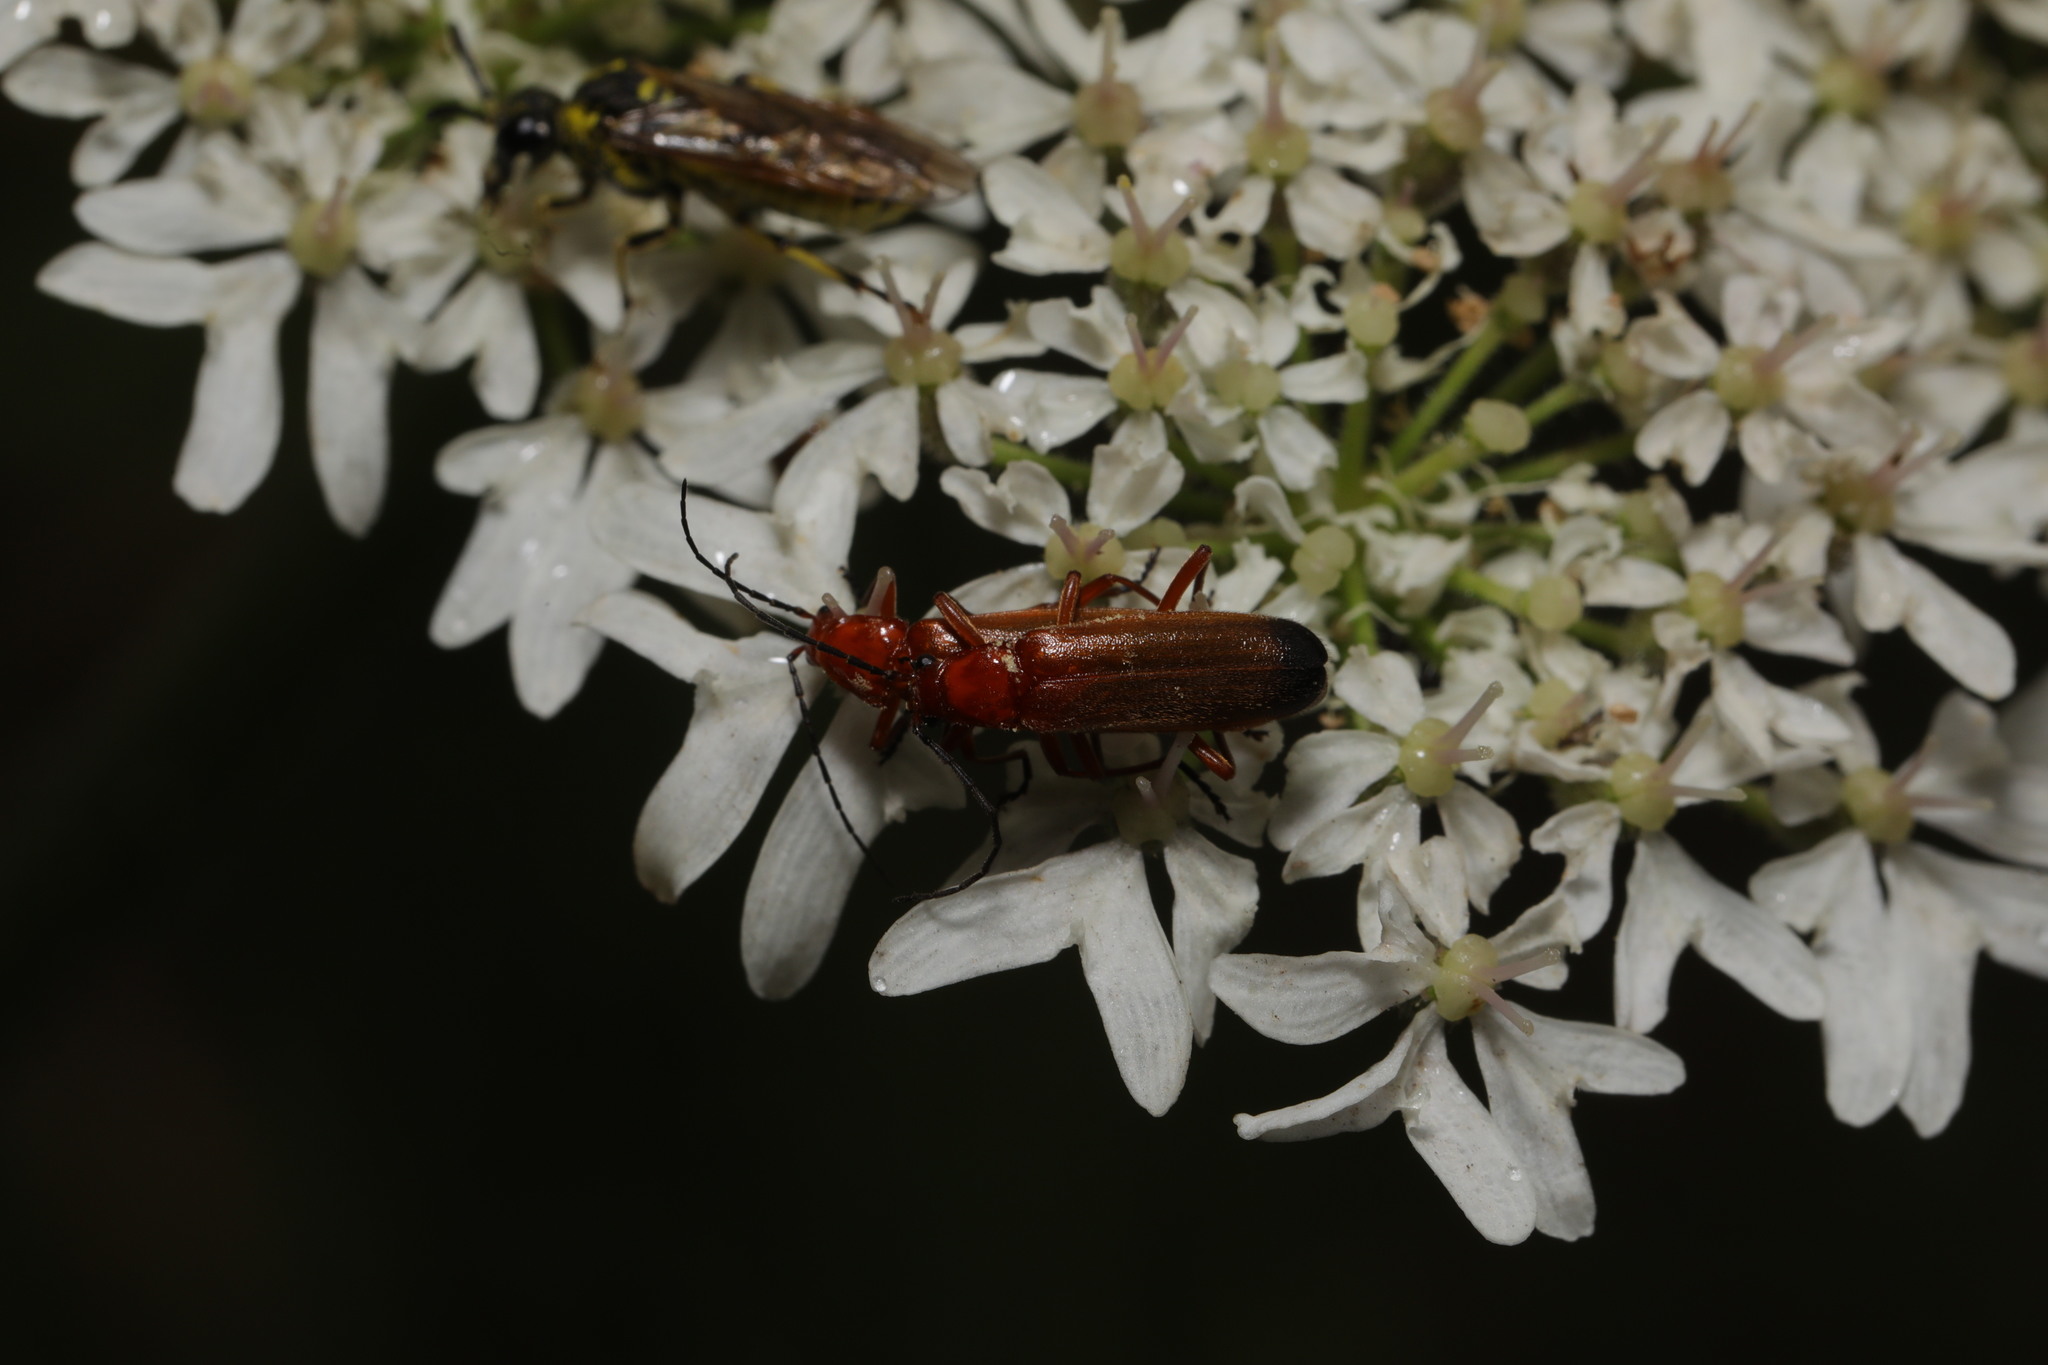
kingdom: Animalia
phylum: Arthropoda
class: Insecta
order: Coleoptera
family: Cantharidae
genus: Rhagonycha
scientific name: Rhagonycha fulva
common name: Common red soldier beetle
